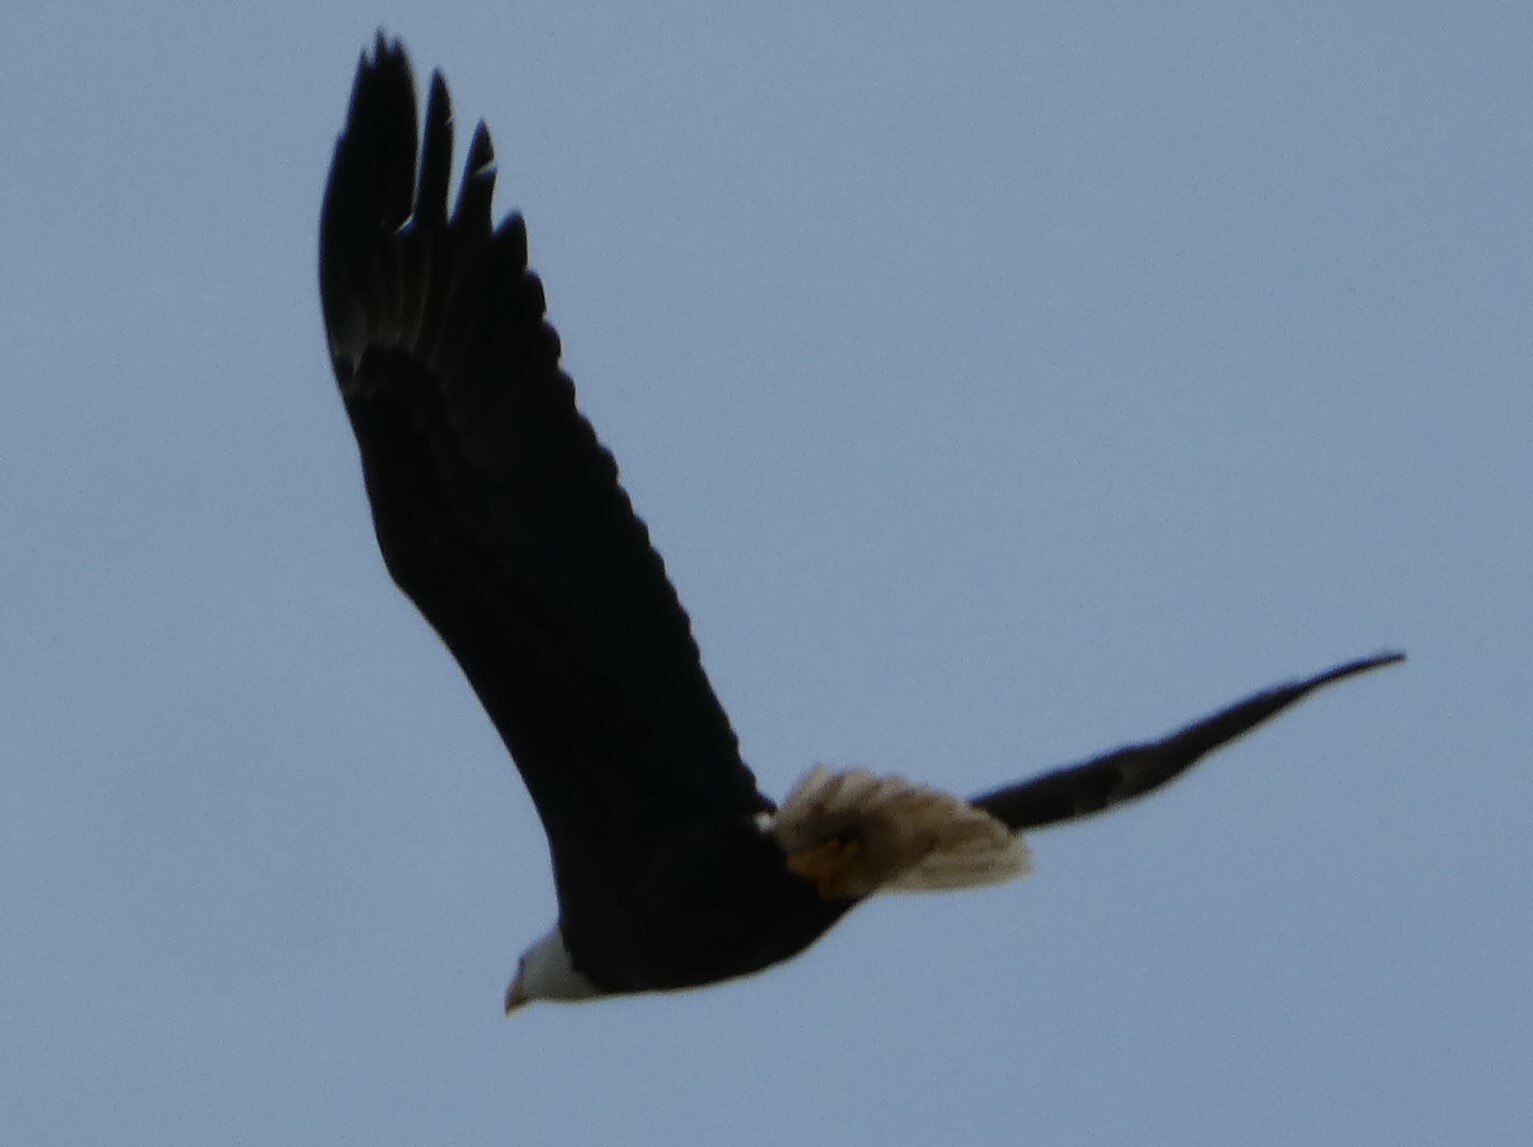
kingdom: Animalia
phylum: Chordata
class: Aves
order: Accipitriformes
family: Accipitridae
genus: Haliaeetus
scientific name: Haliaeetus leucocephalus
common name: Bald eagle
